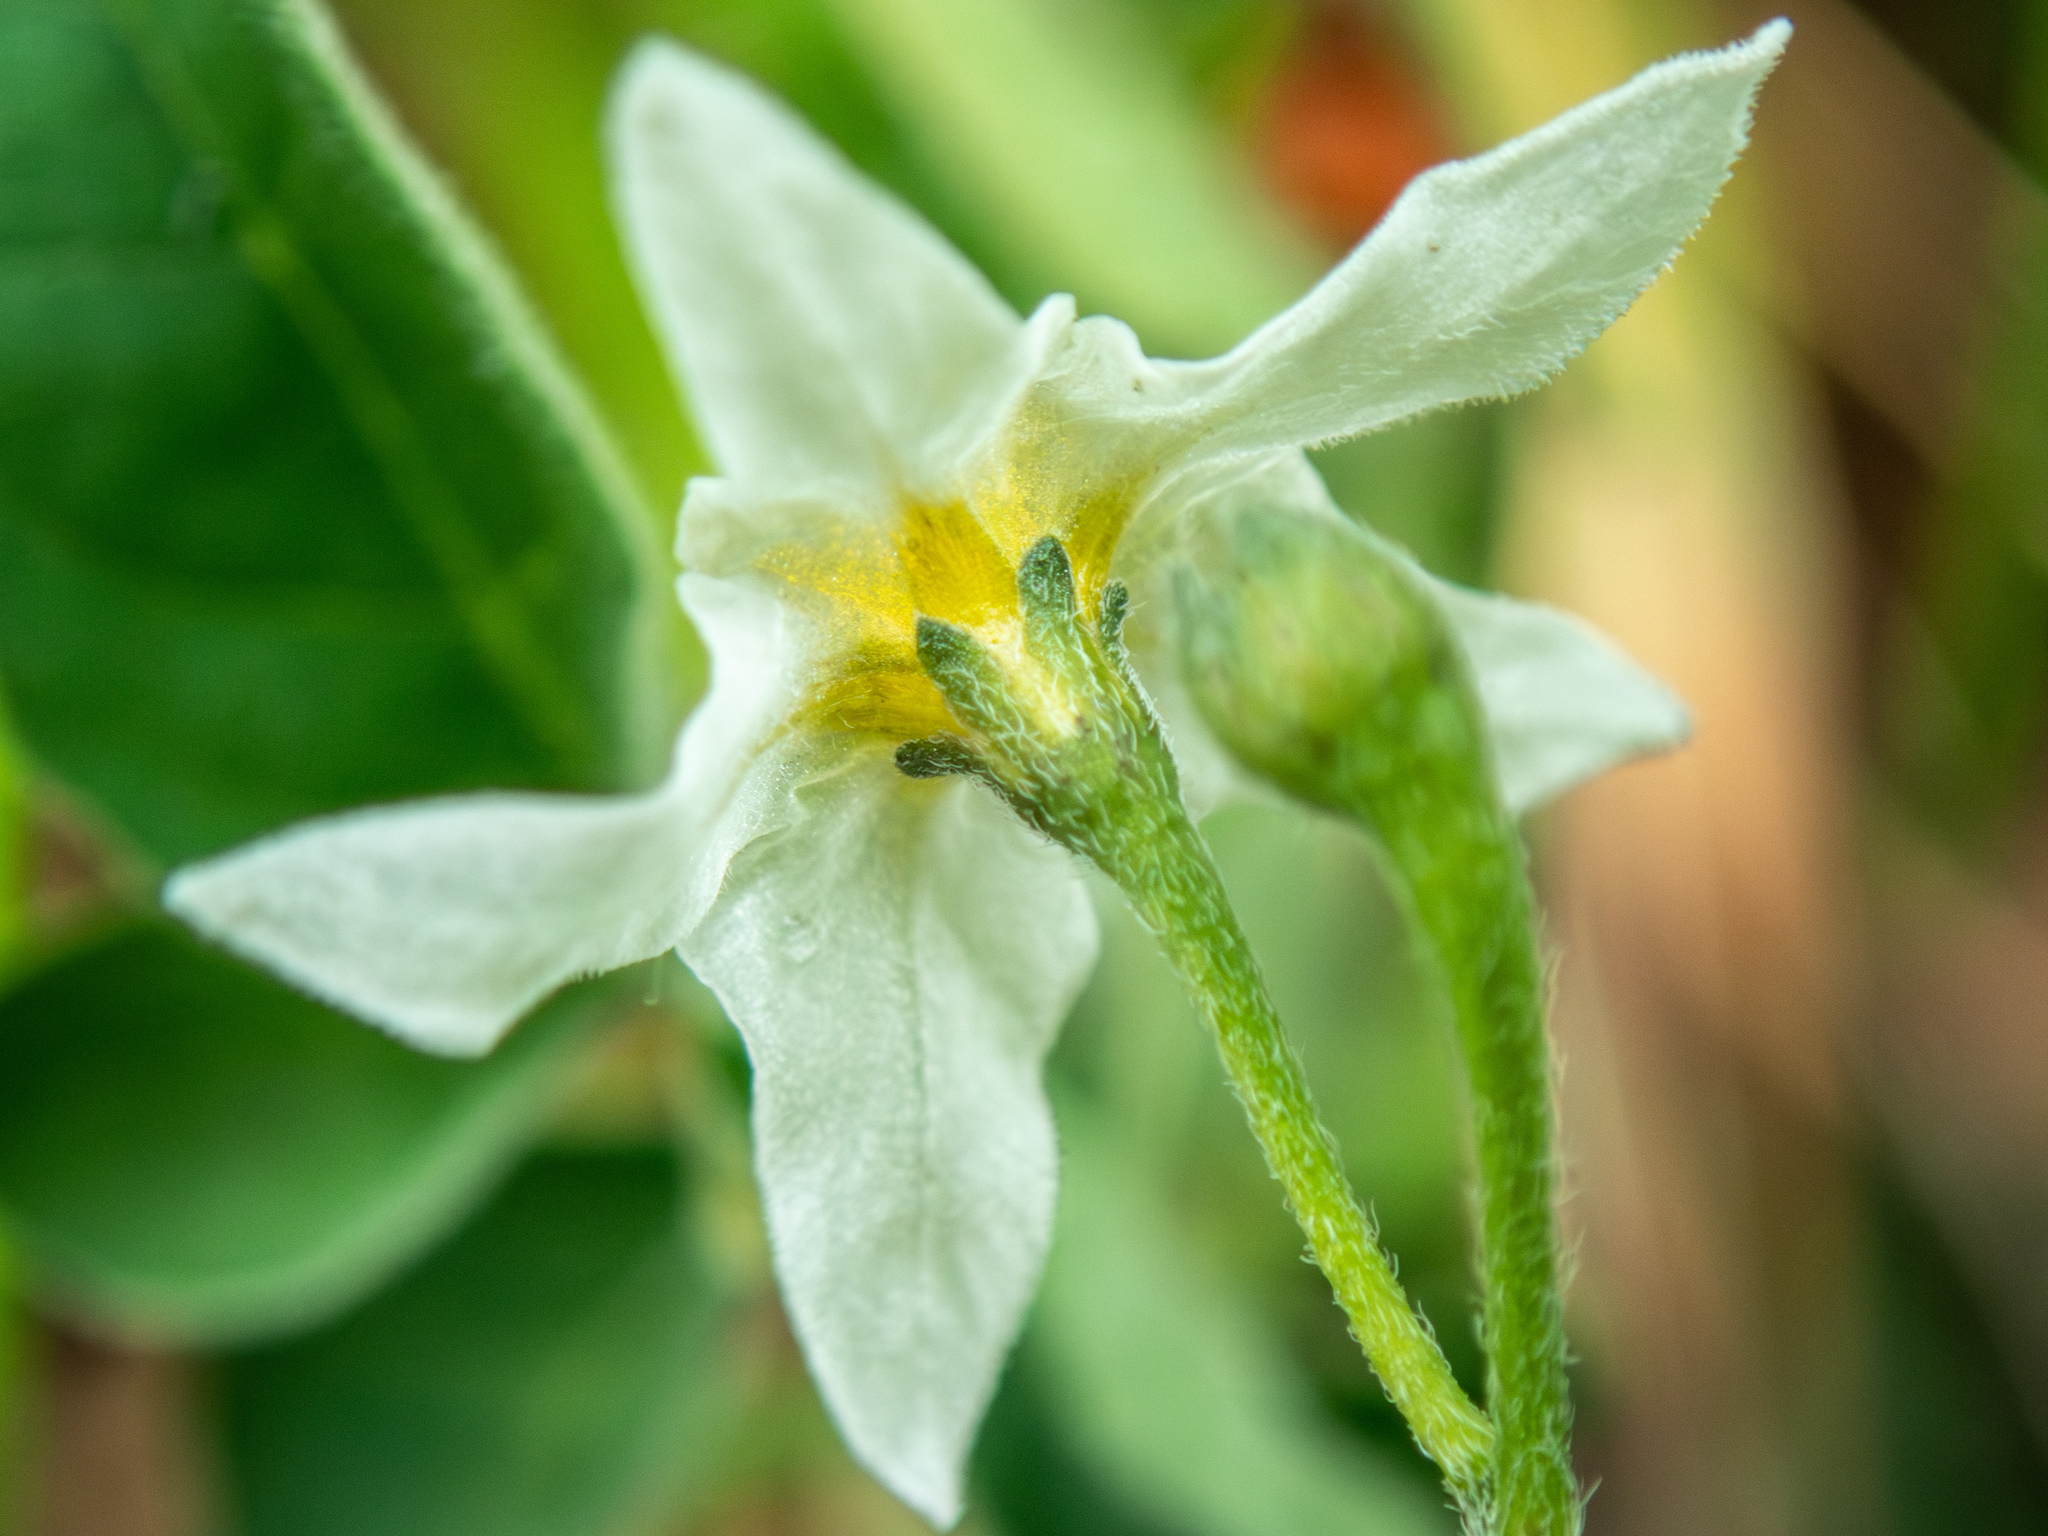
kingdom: Plantae
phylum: Tracheophyta
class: Magnoliopsida
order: Solanales
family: Solanaceae
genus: Solanum
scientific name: Solanum chenopodioides
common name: Tall nightshade
